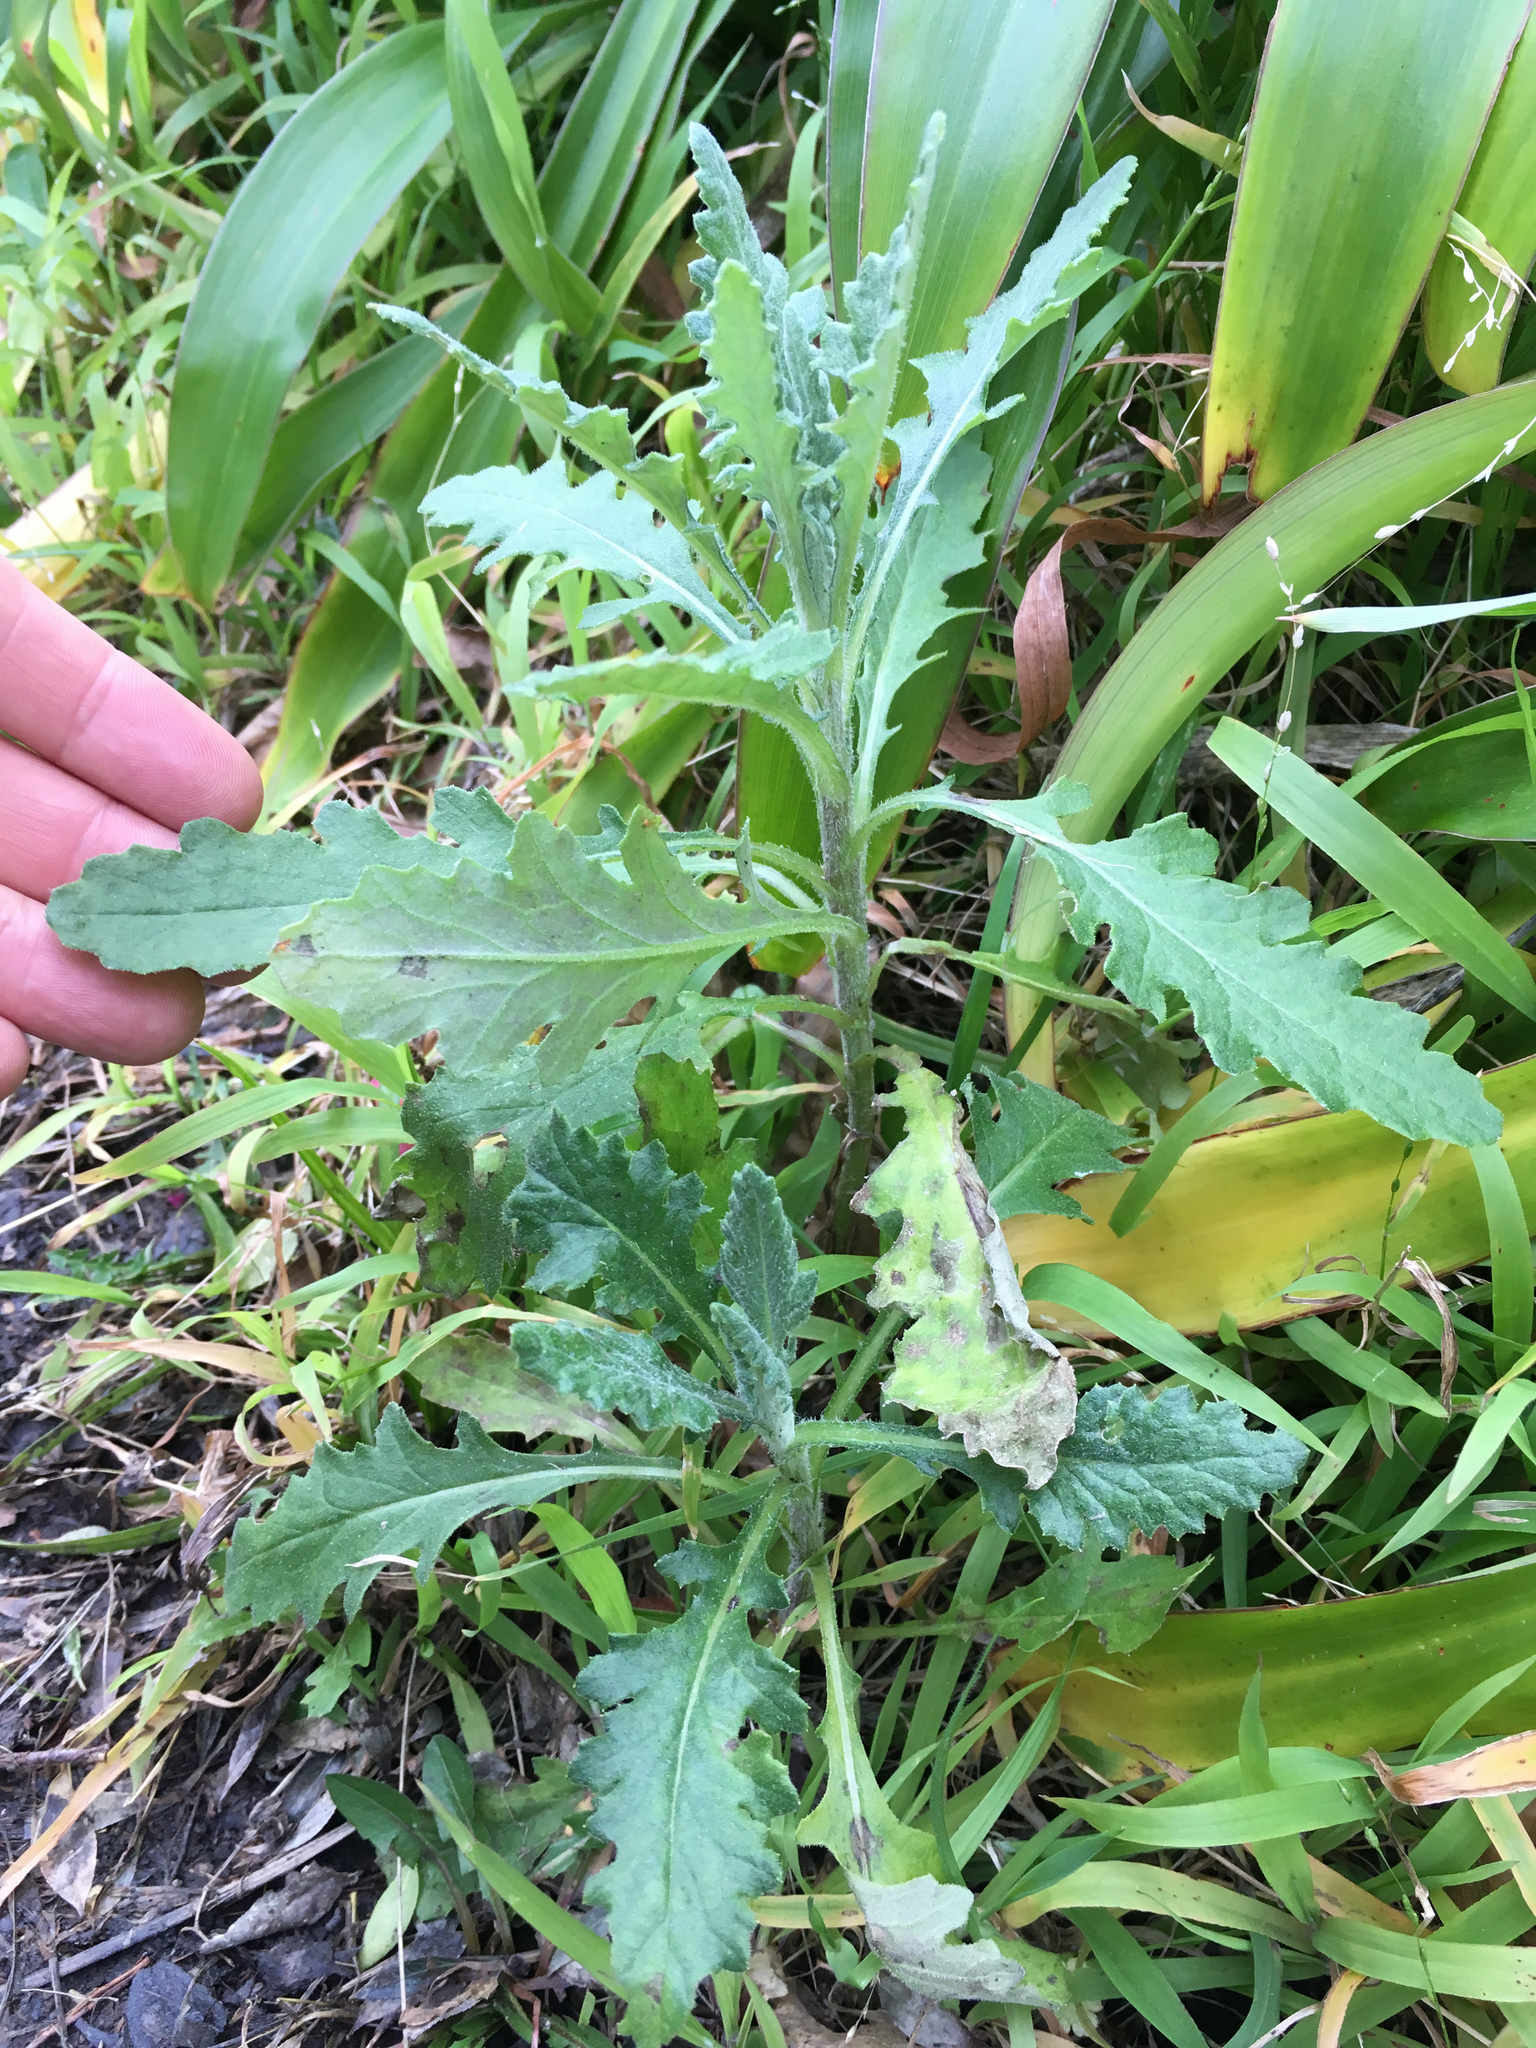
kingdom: Plantae
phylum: Tracheophyta
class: Magnoliopsida
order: Asterales
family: Asteraceae
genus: Senecio
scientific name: Senecio glomeratus
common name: Cutleaf burnweed
